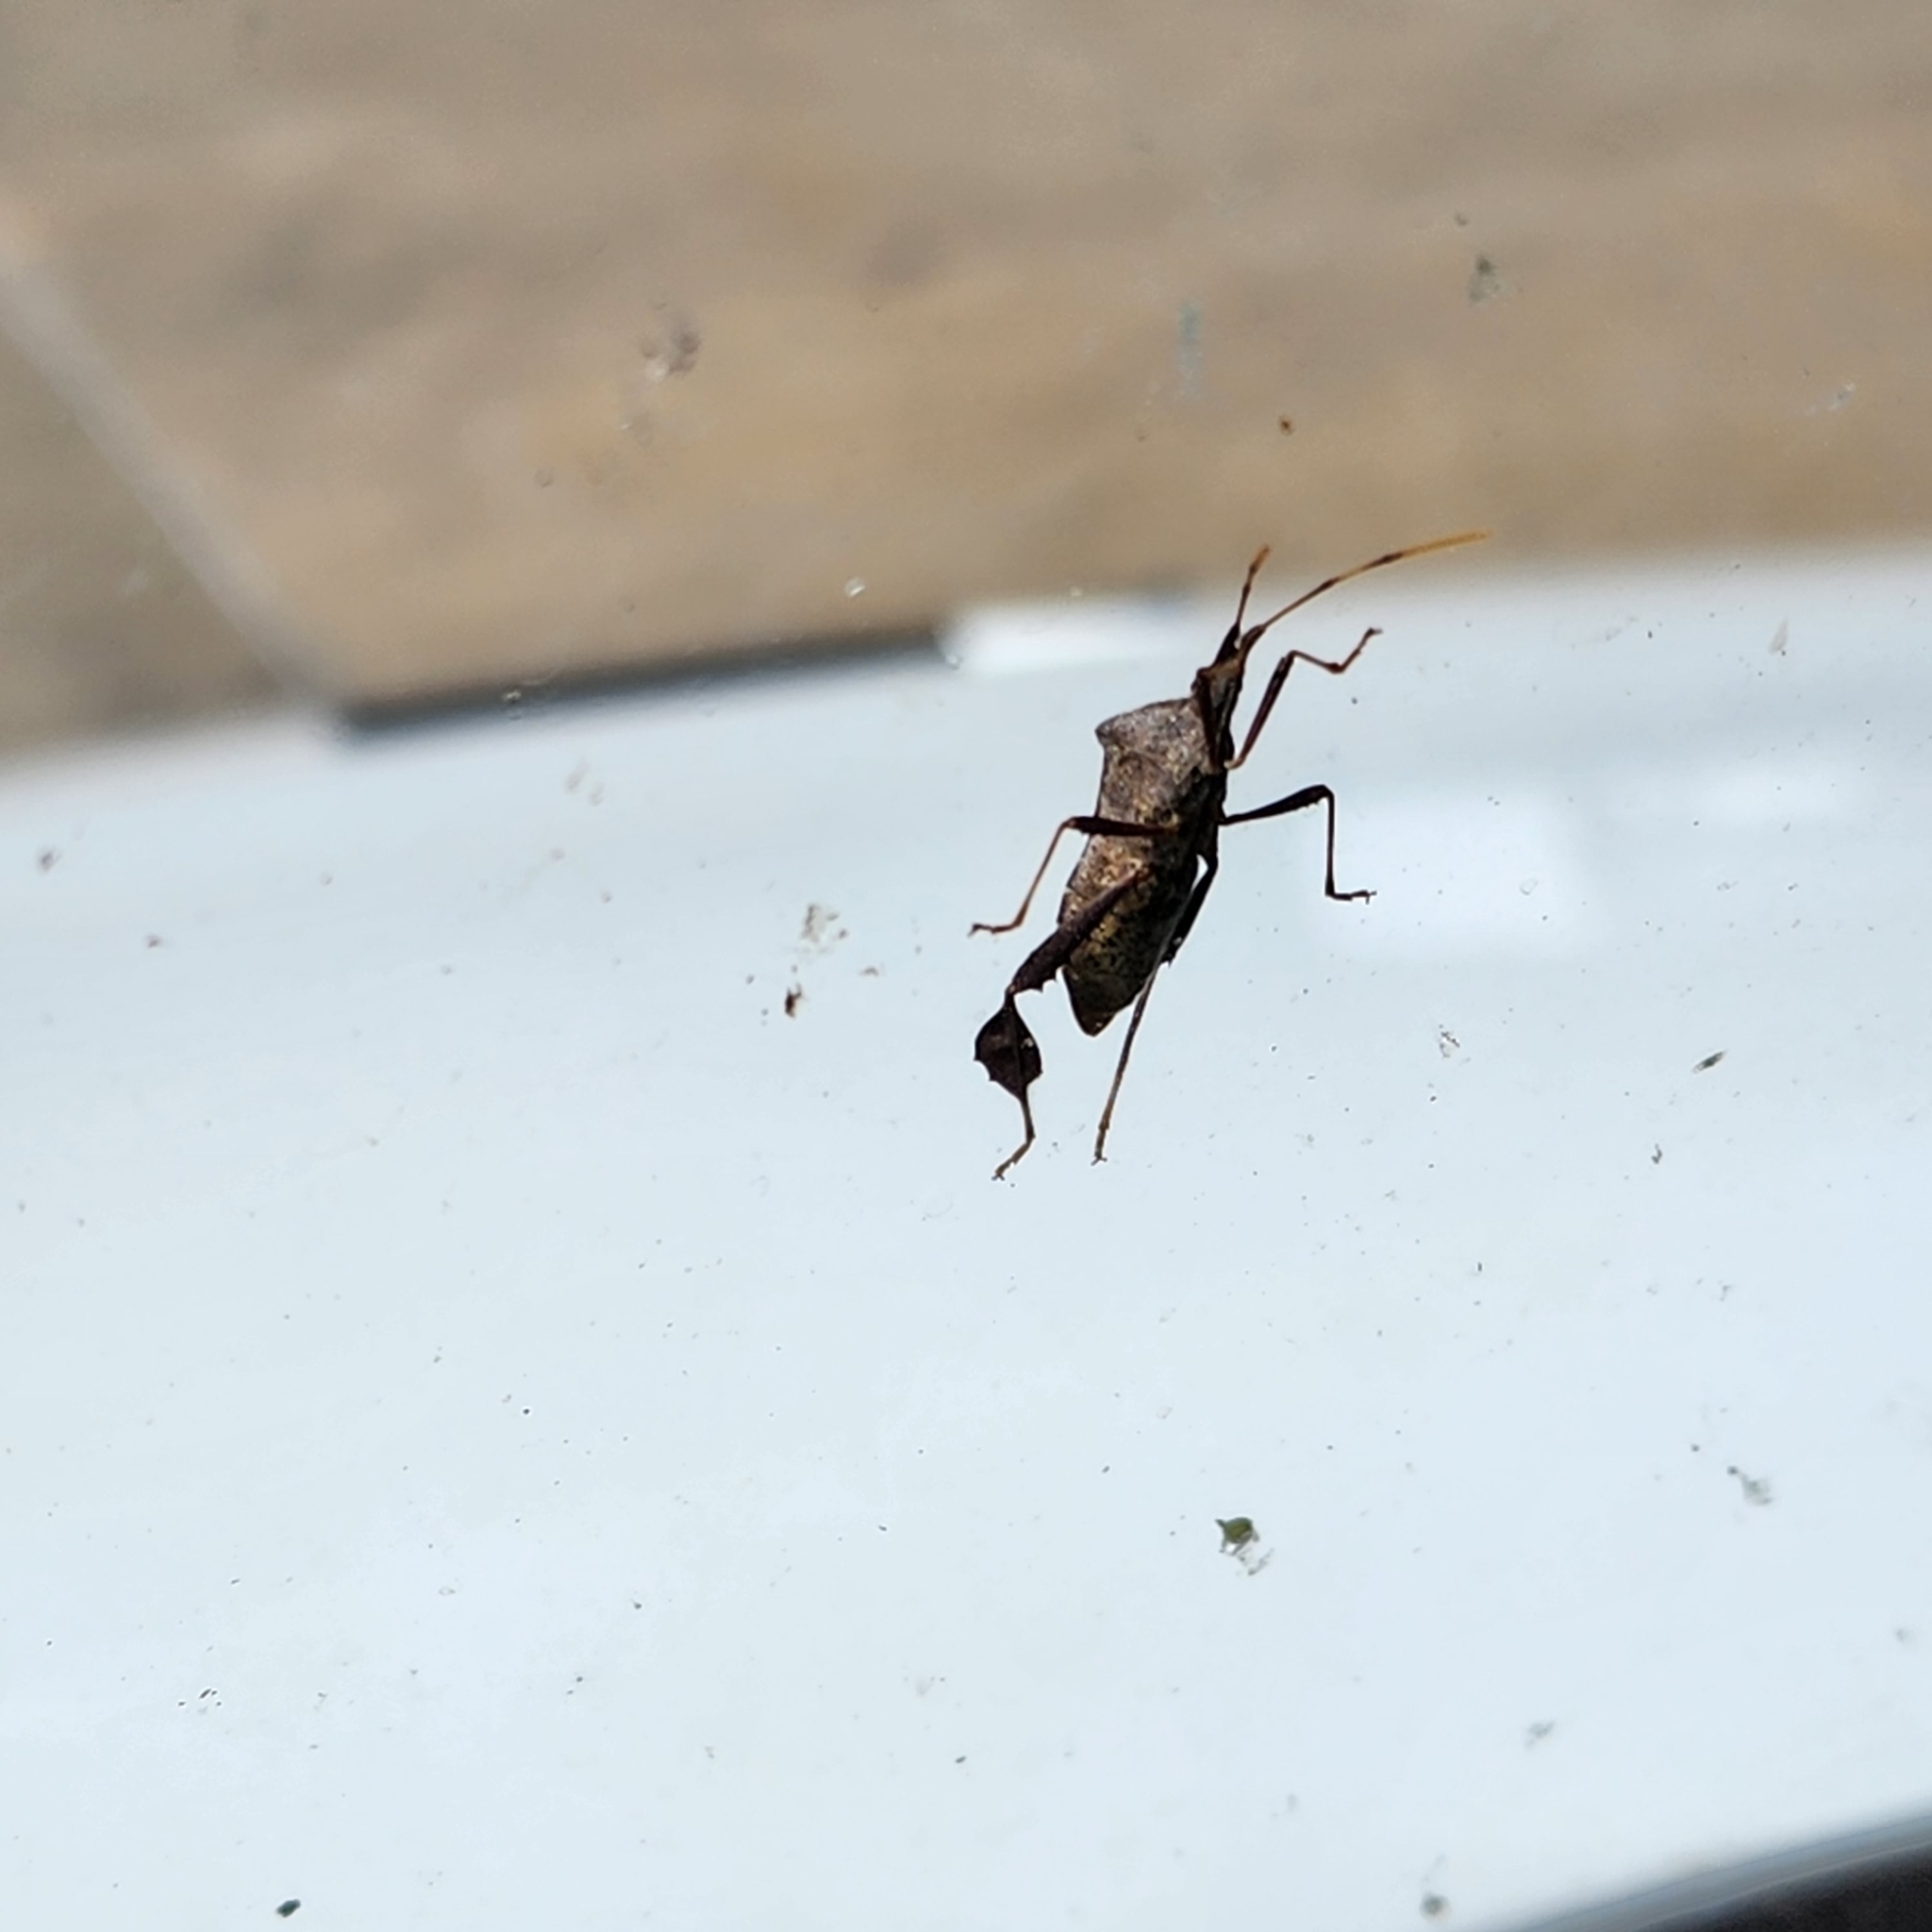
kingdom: Animalia
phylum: Arthropoda
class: Insecta
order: Hemiptera
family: Coreidae
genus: Leptoglossus
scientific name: Leptoglossus oppositus
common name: Northern leaf-footed bug
